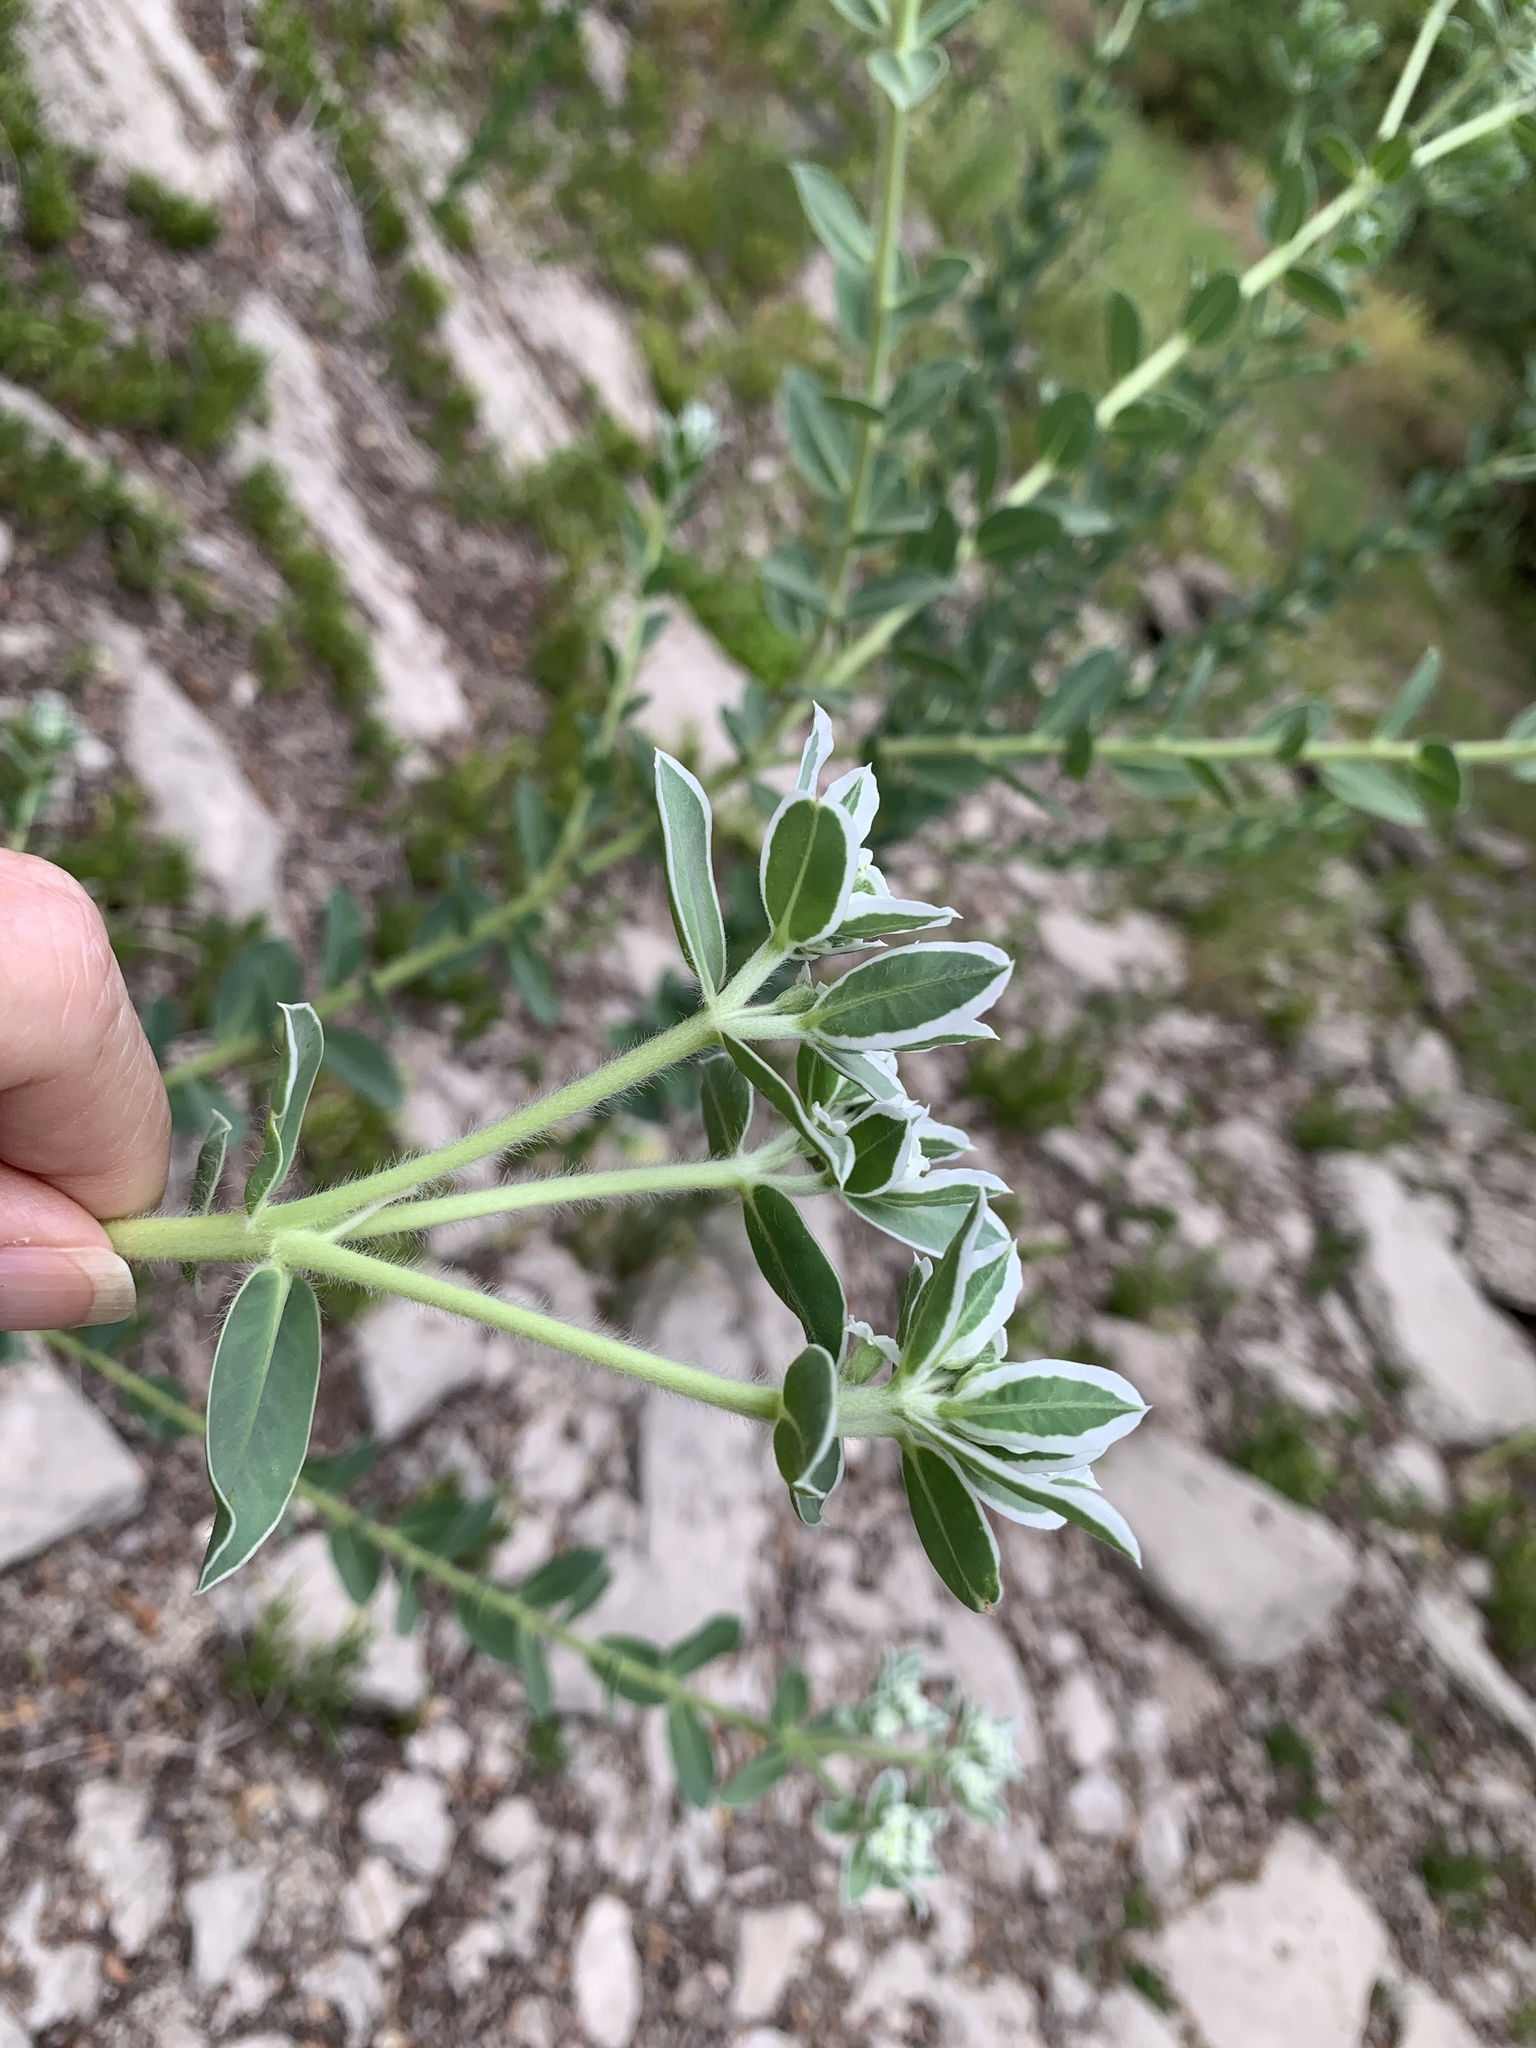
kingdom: Plantae
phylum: Tracheophyta
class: Magnoliopsida
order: Malpighiales
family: Euphorbiaceae
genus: Euphorbia
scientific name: Euphorbia marginata
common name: Ghostweed
